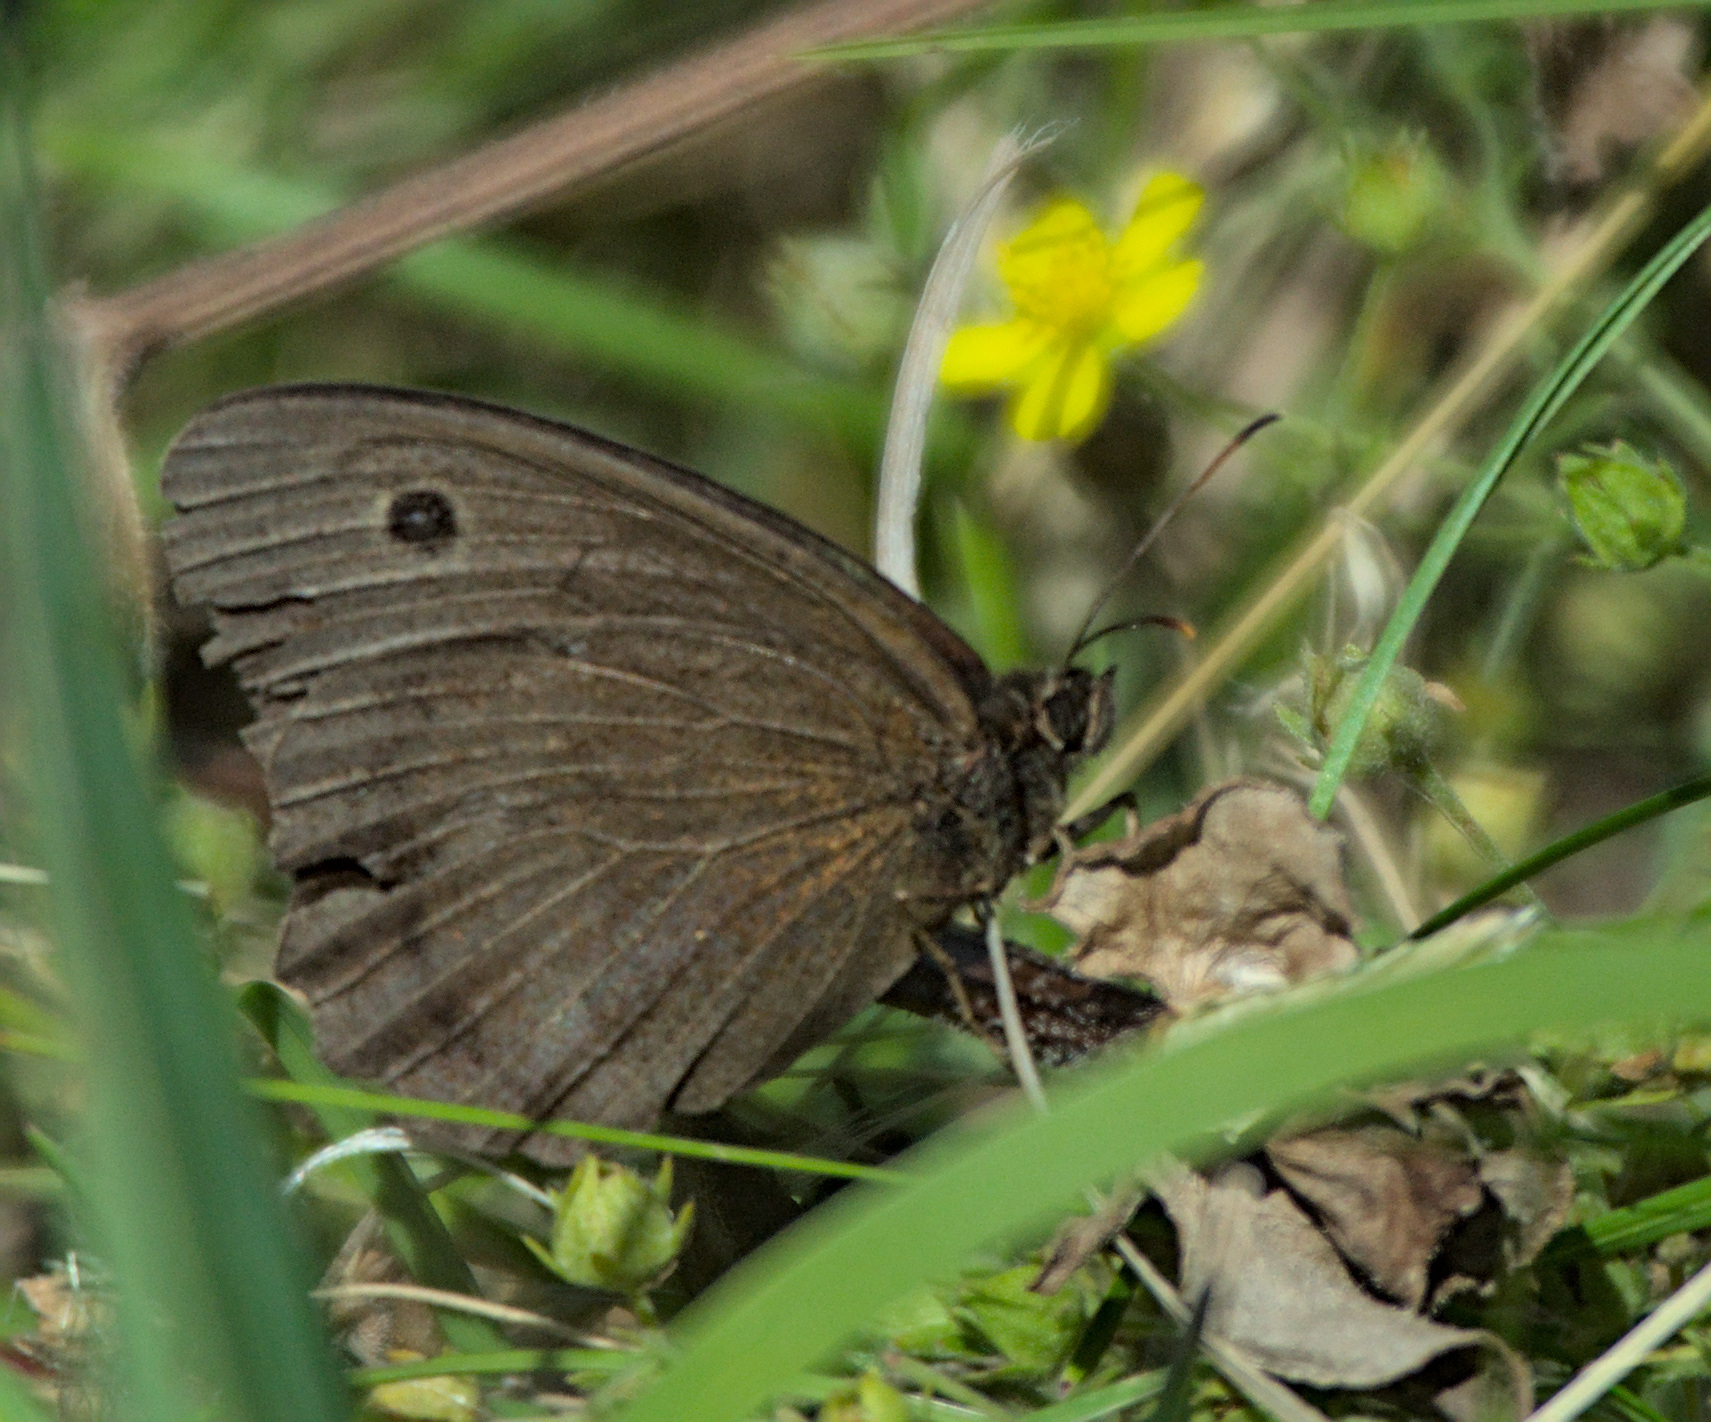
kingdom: Animalia
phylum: Arthropoda
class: Insecta
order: Lepidoptera
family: Nymphalidae
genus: Minois
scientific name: Minois dryas
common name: Dryad
